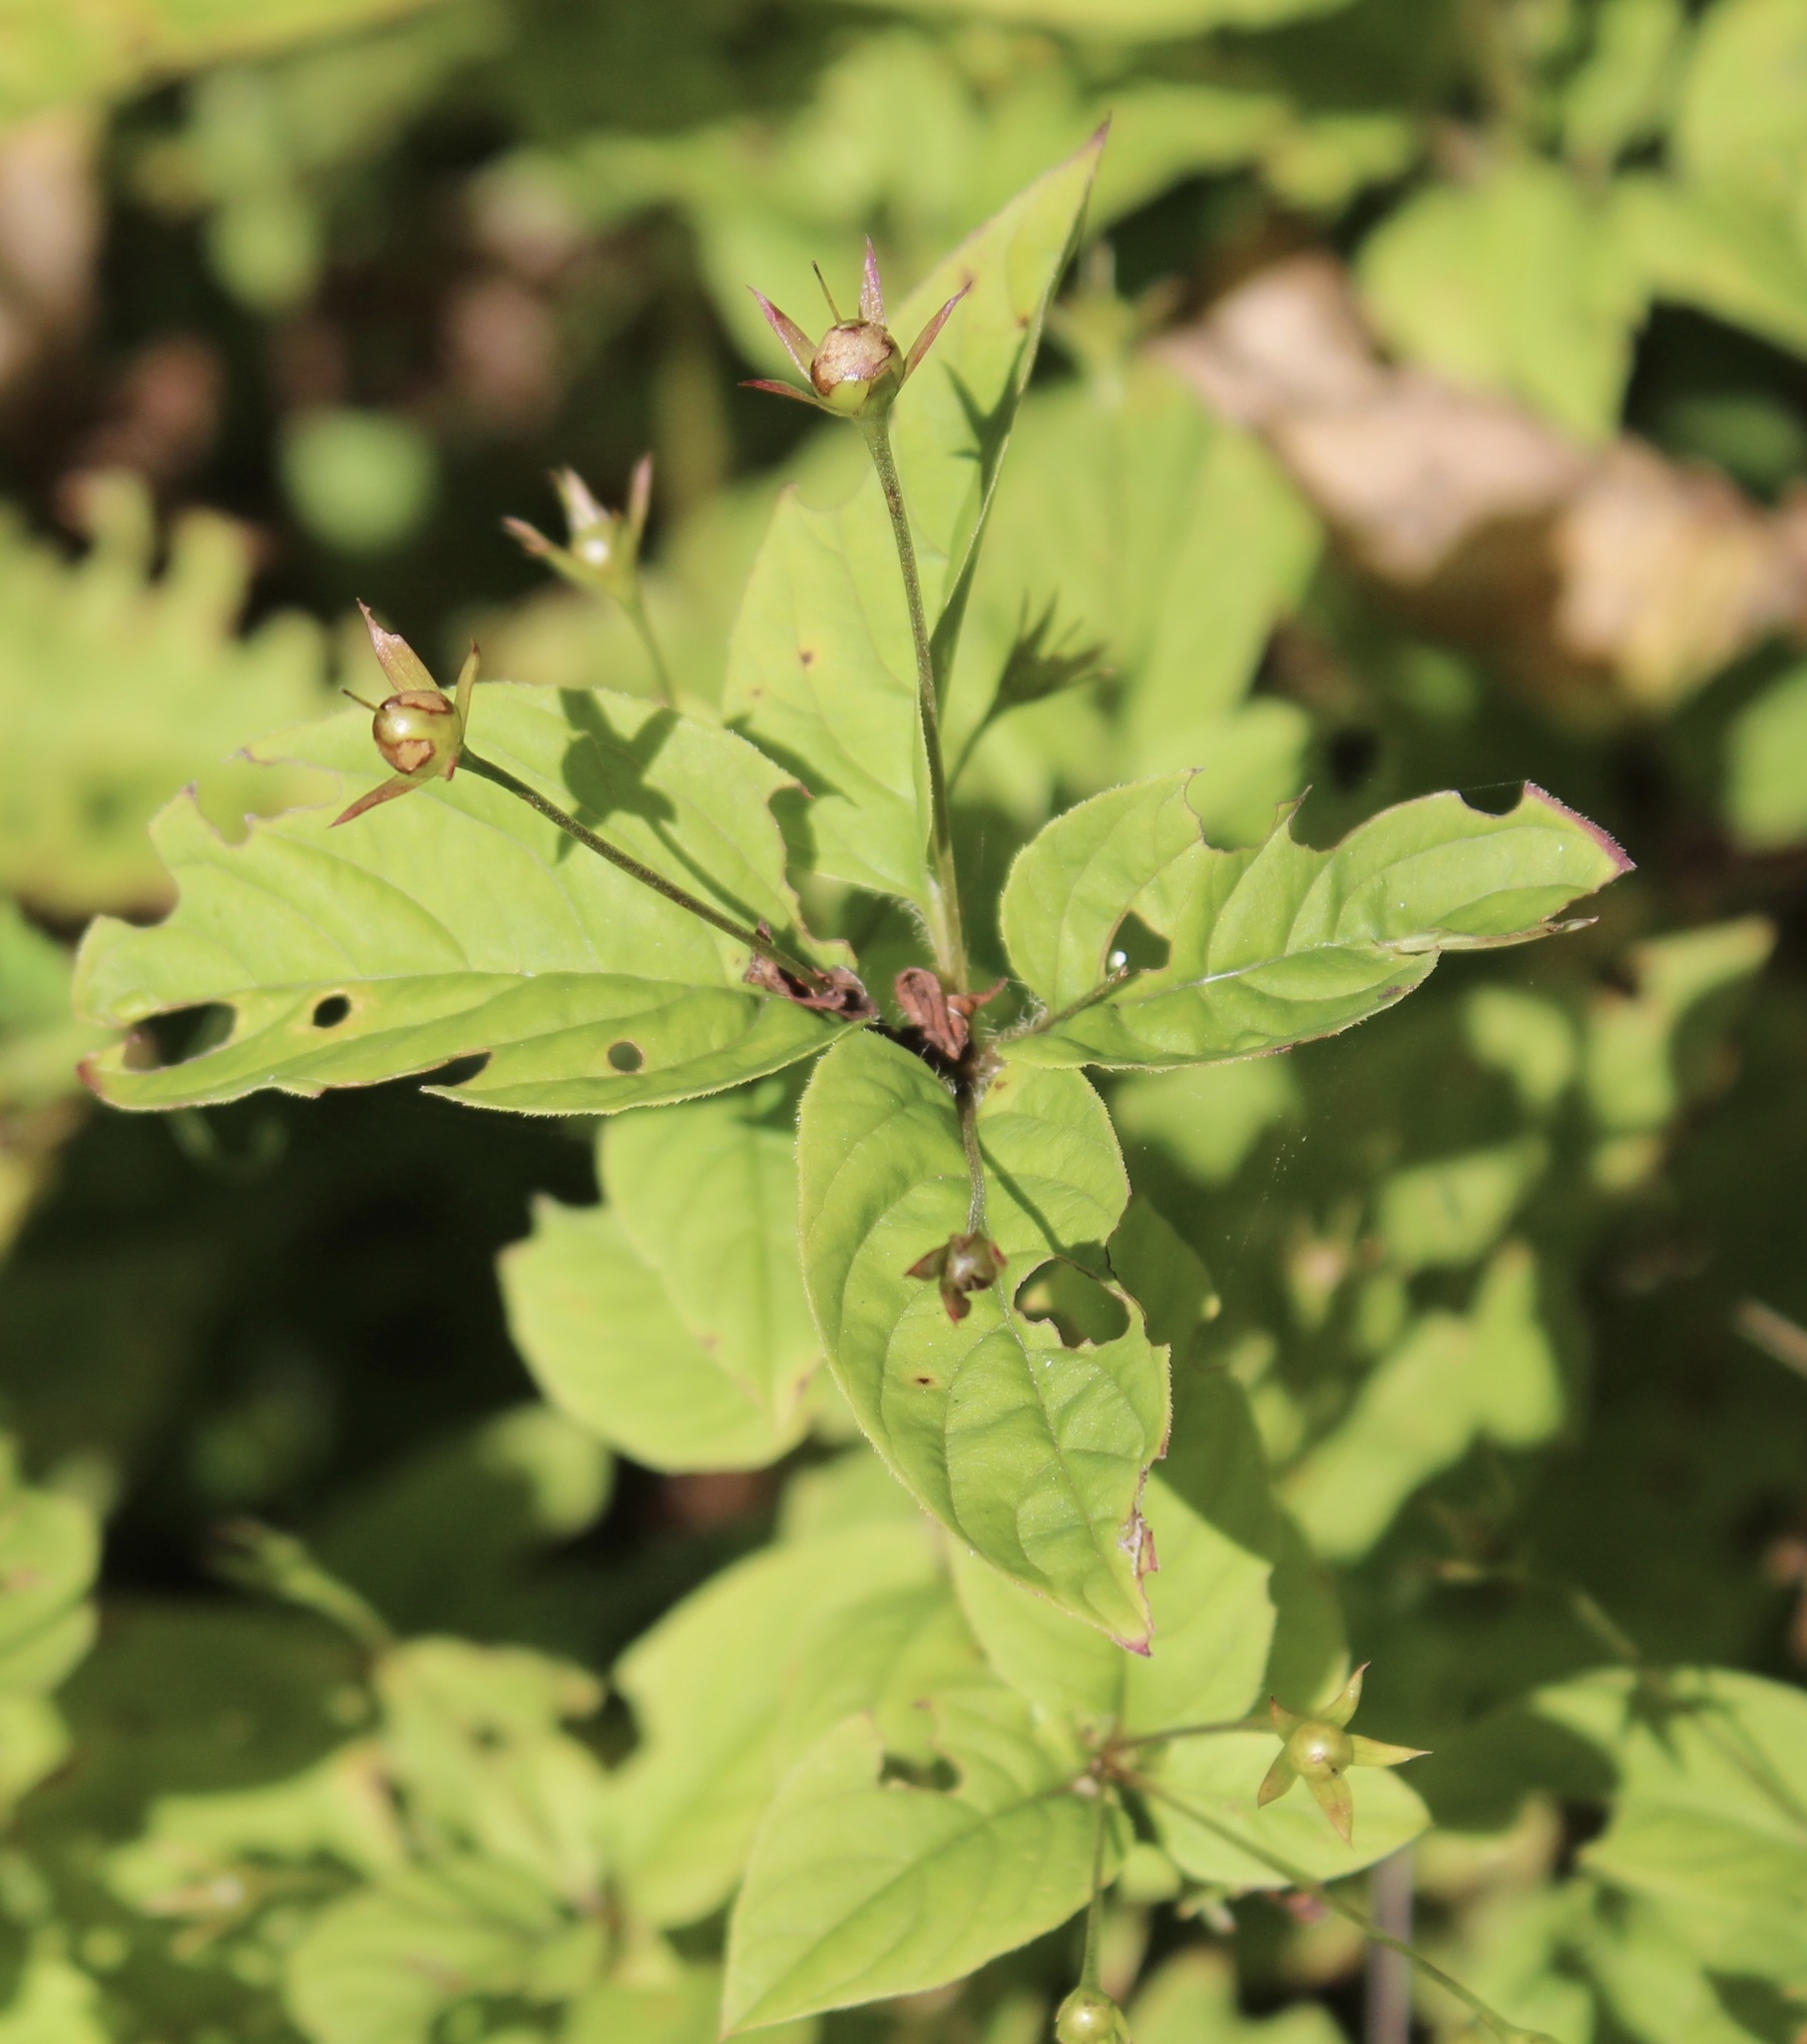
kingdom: Plantae
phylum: Tracheophyta
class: Magnoliopsida
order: Ericales
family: Primulaceae
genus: Lysimachia
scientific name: Lysimachia ciliata
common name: Fringed loosestrife
